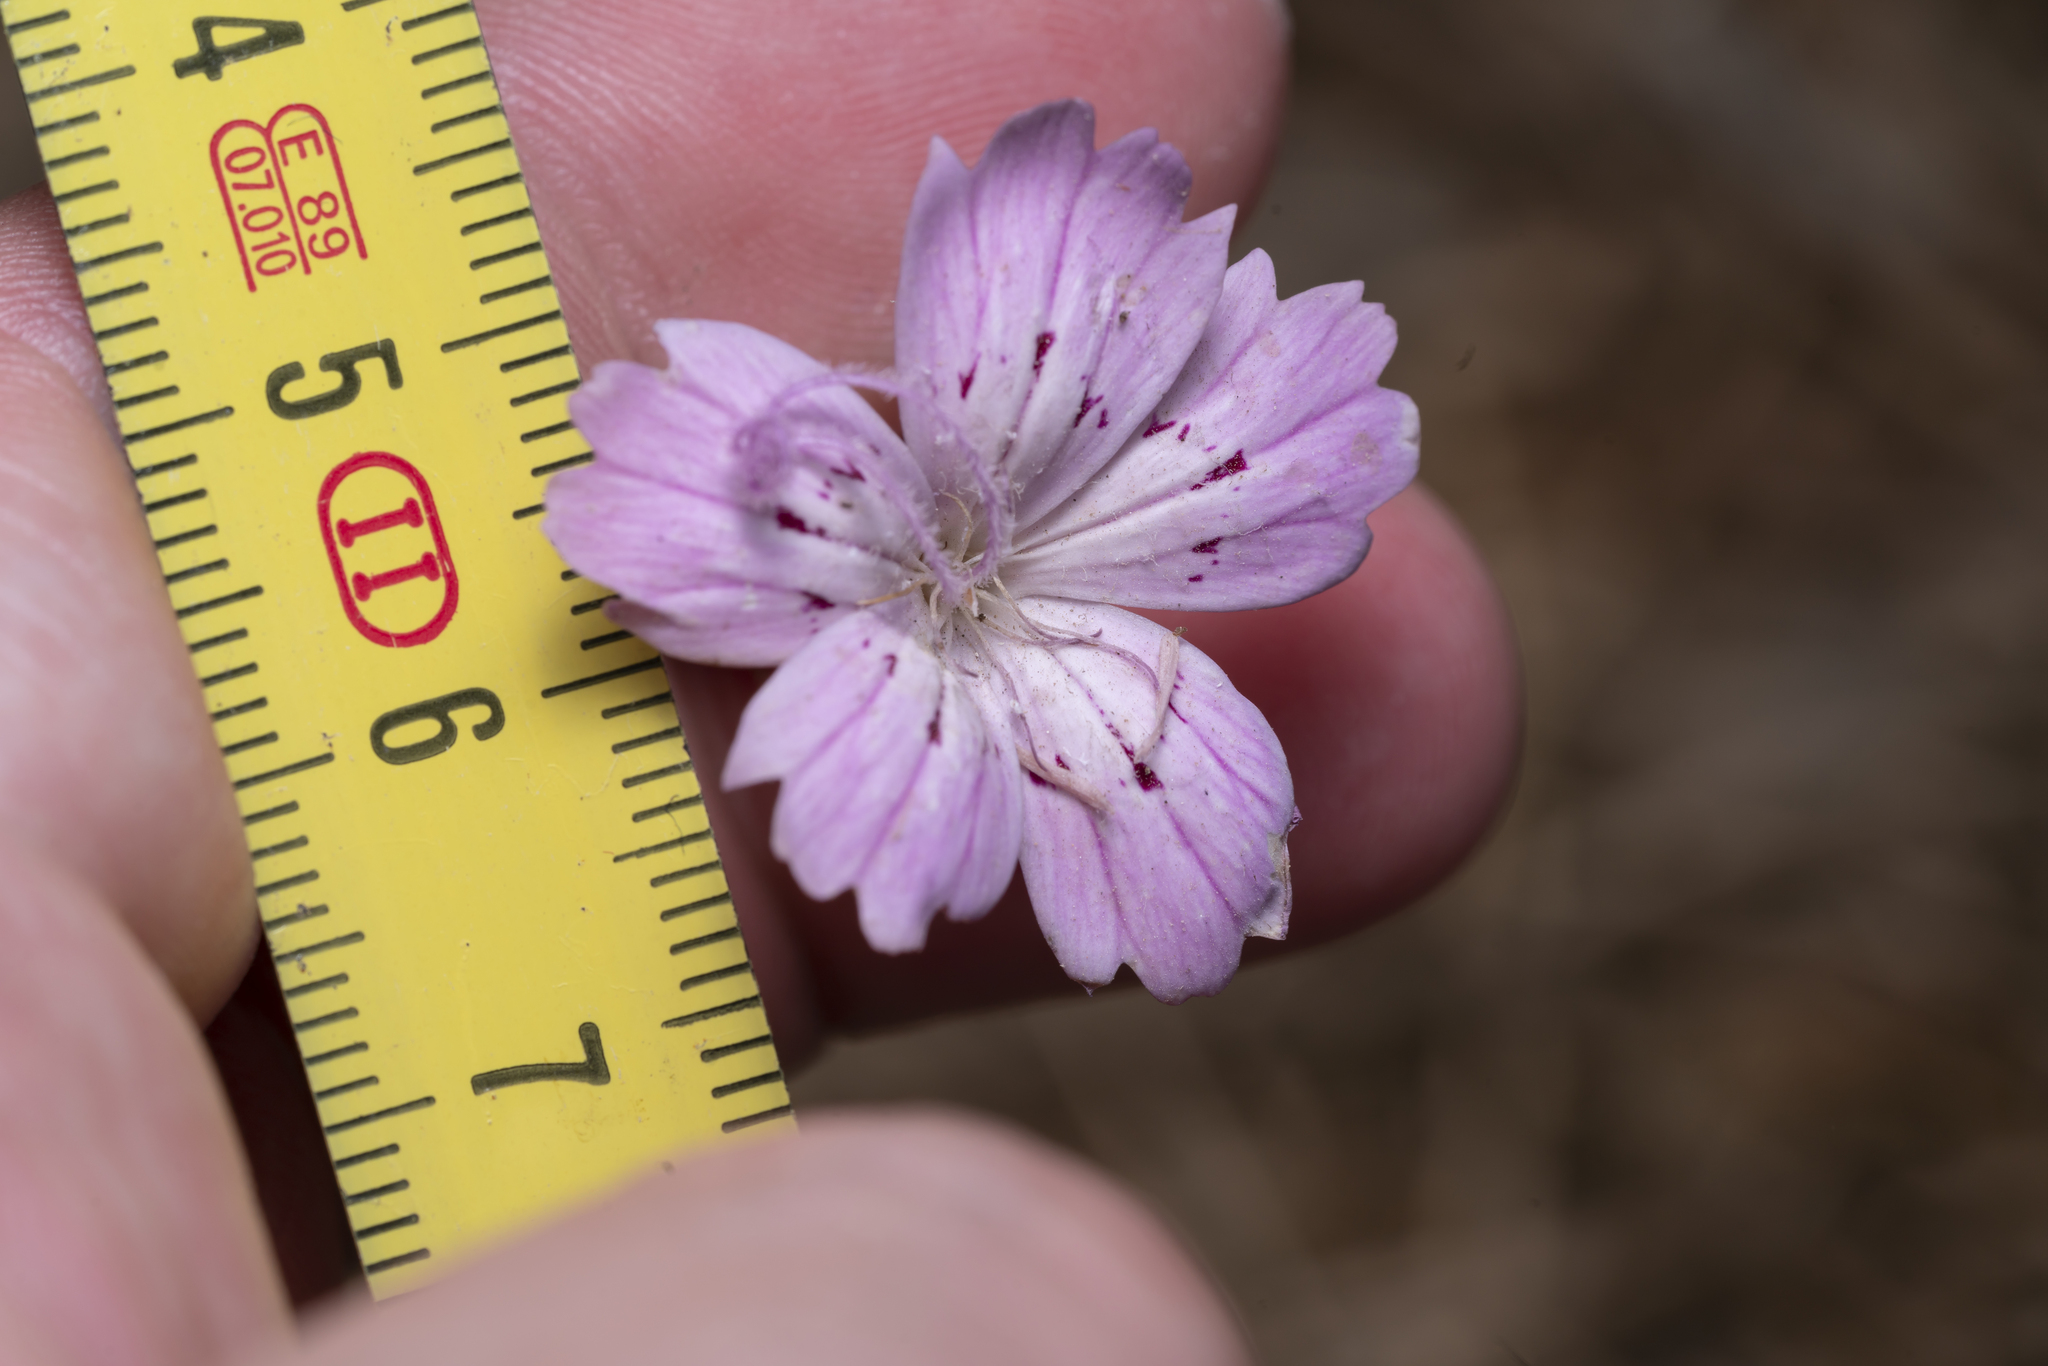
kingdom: Plantae
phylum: Tracheophyta
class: Magnoliopsida
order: Caryophyllales
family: Caryophyllaceae
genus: Dianthus
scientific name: Dianthus strictus
